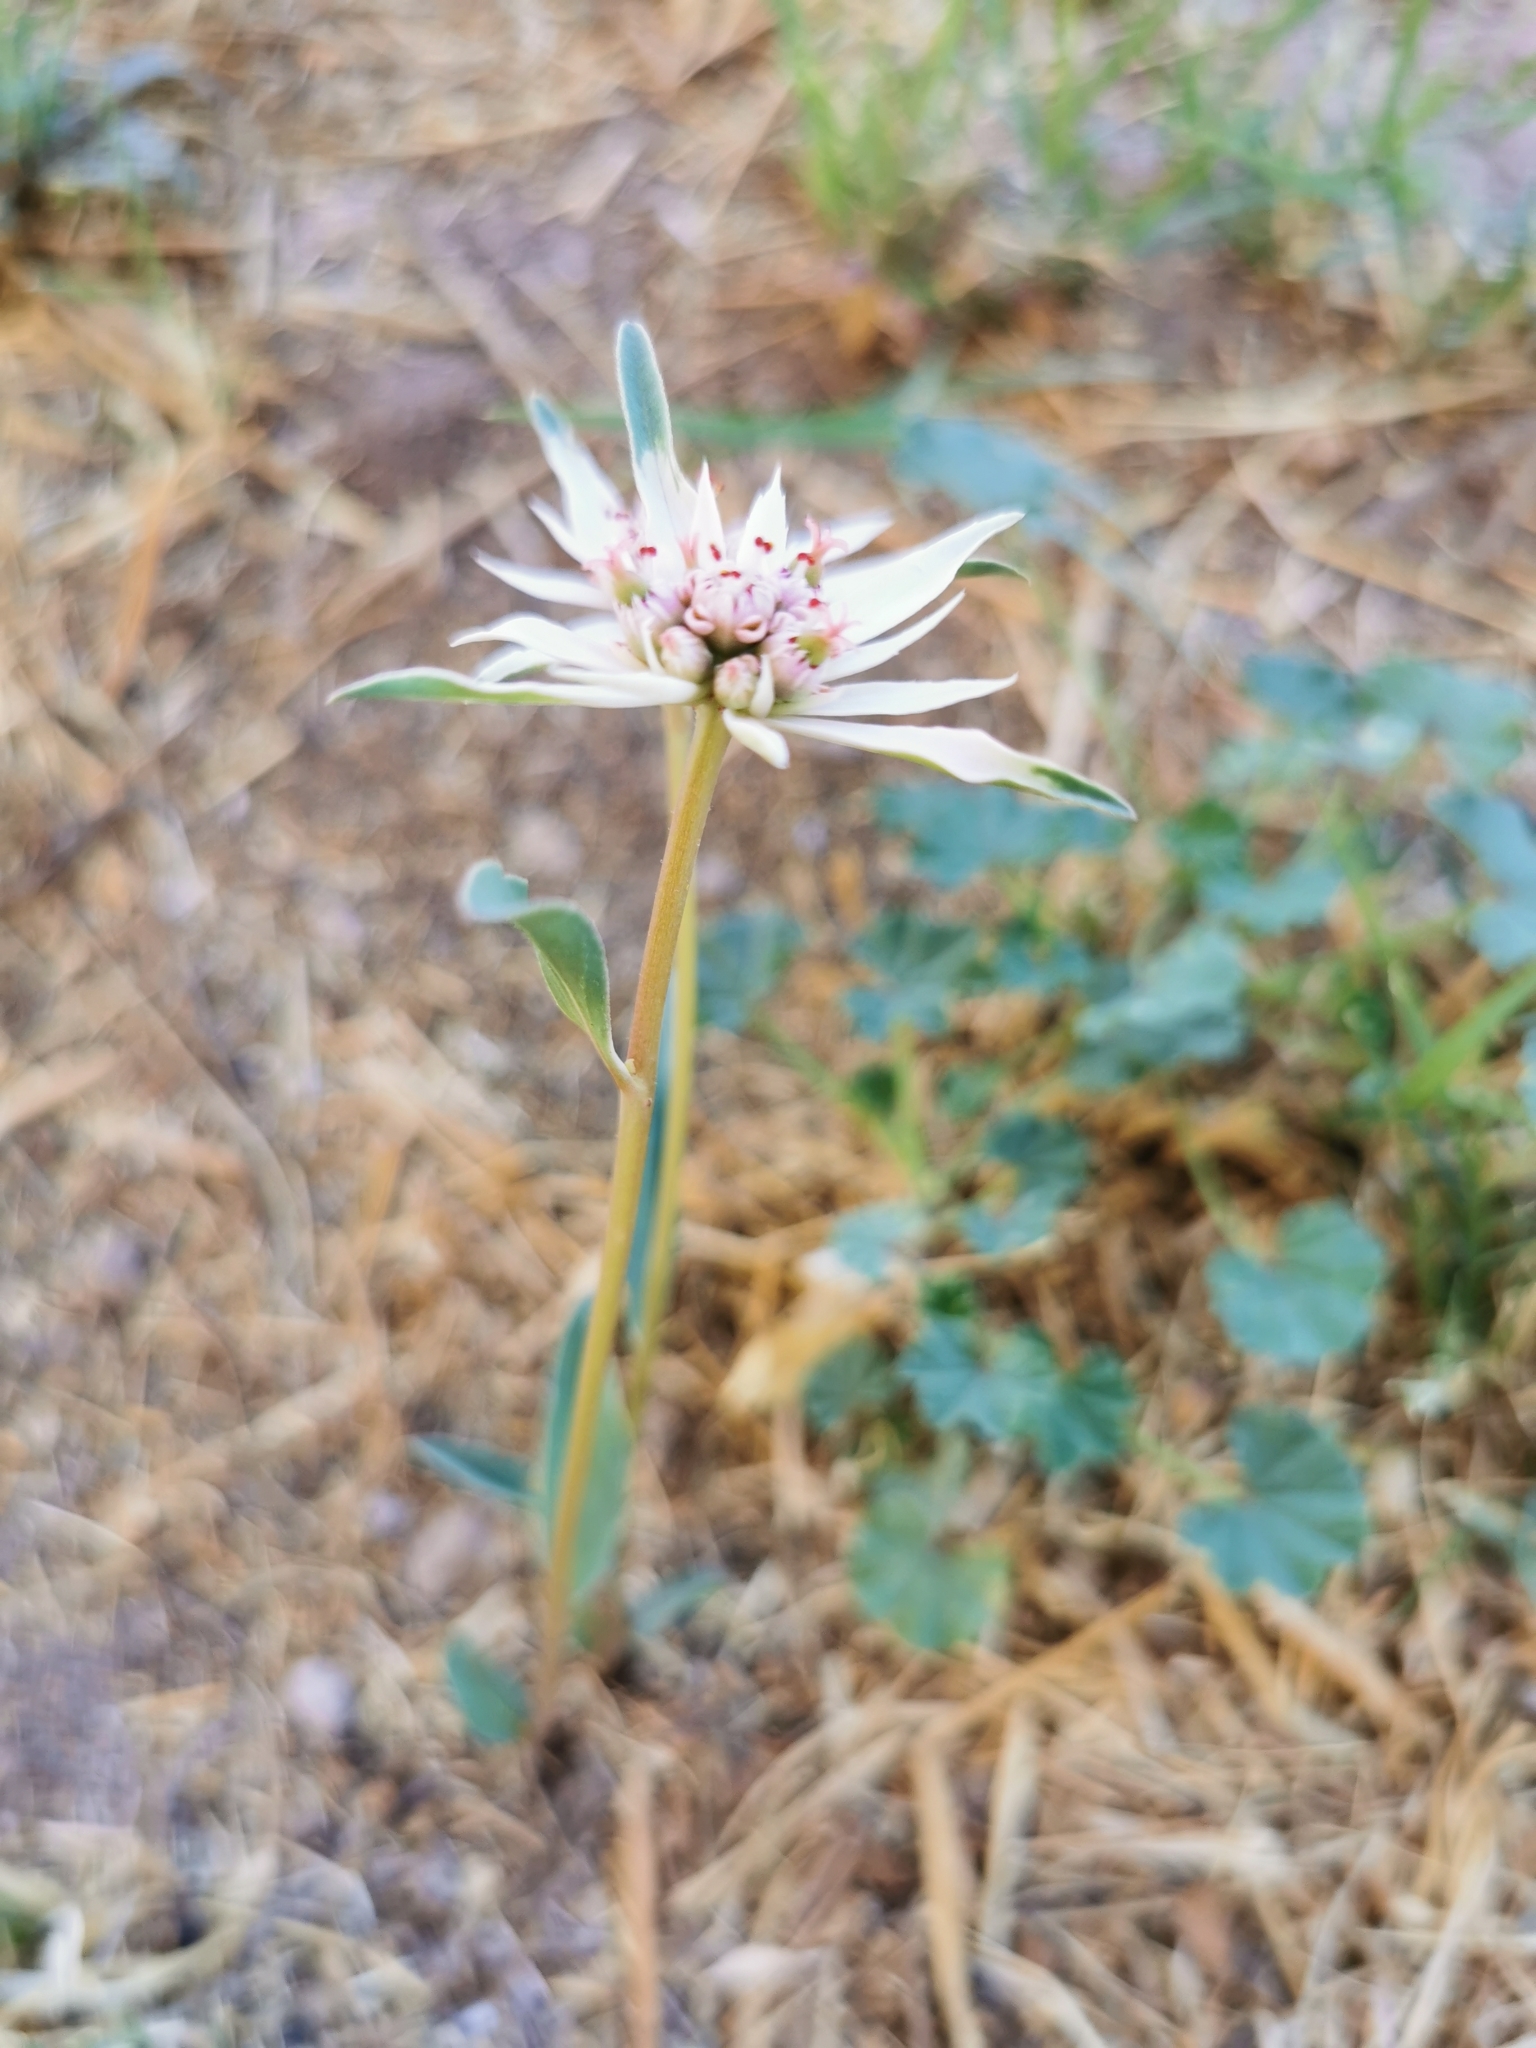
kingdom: Plantae
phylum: Tracheophyta
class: Magnoliopsida
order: Malpighiales
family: Euphorbiaceae
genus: Euphorbia
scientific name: Euphorbia radians
